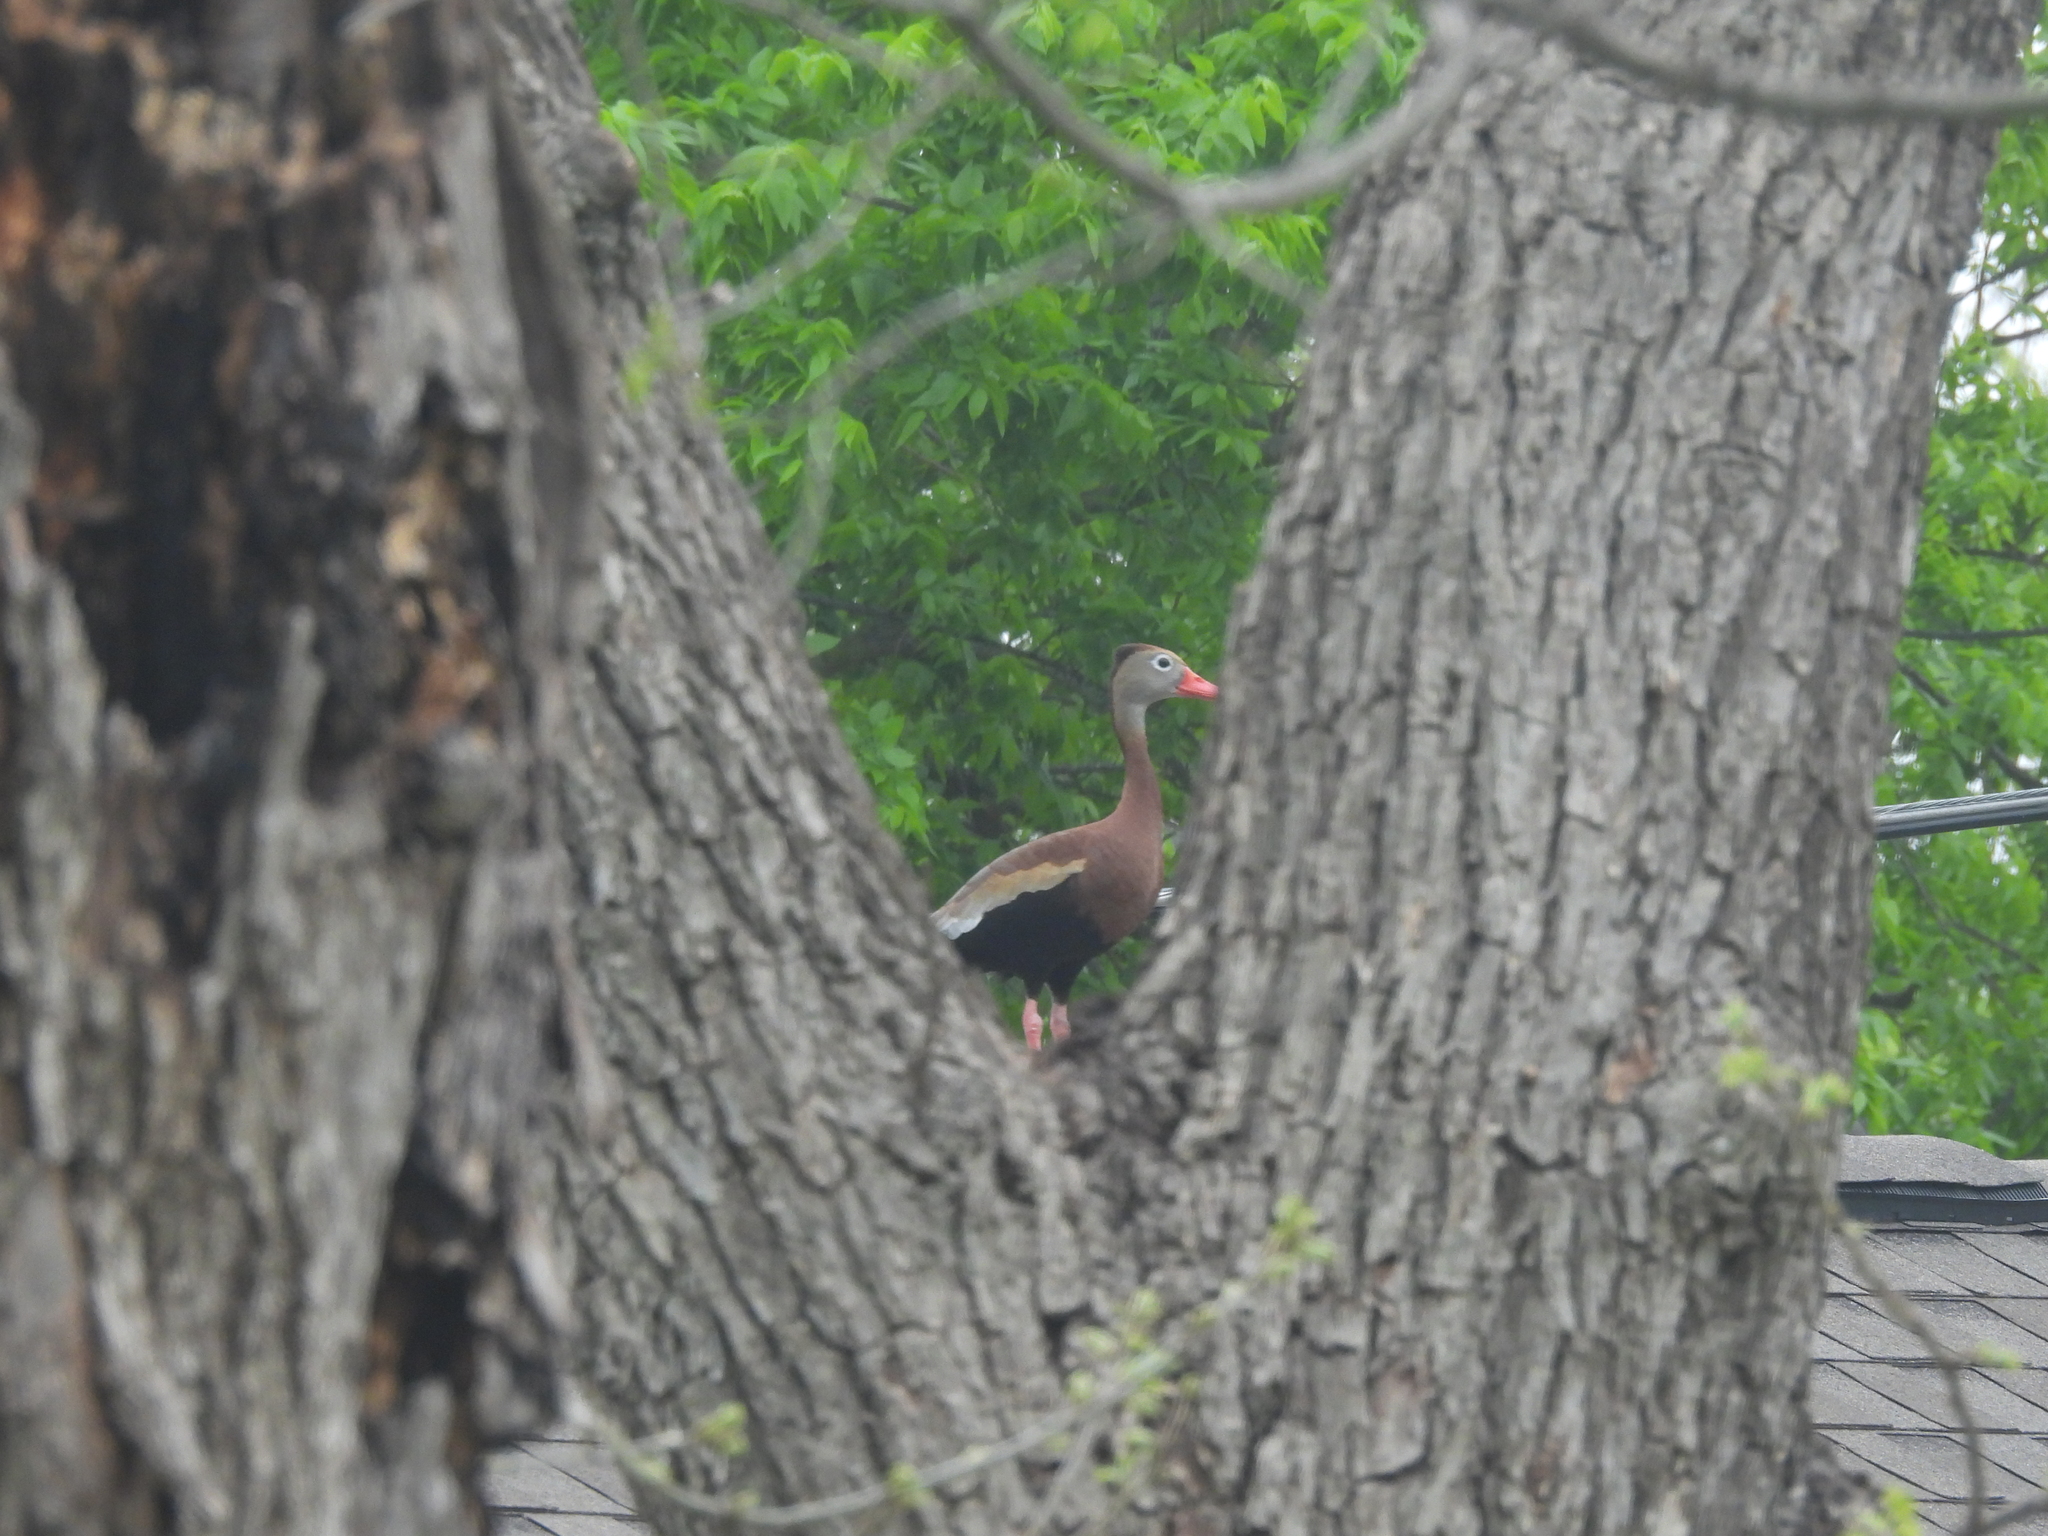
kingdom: Animalia
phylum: Chordata
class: Aves
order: Anseriformes
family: Anatidae
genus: Dendrocygna
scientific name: Dendrocygna autumnalis
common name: Black-bellied whistling duck
